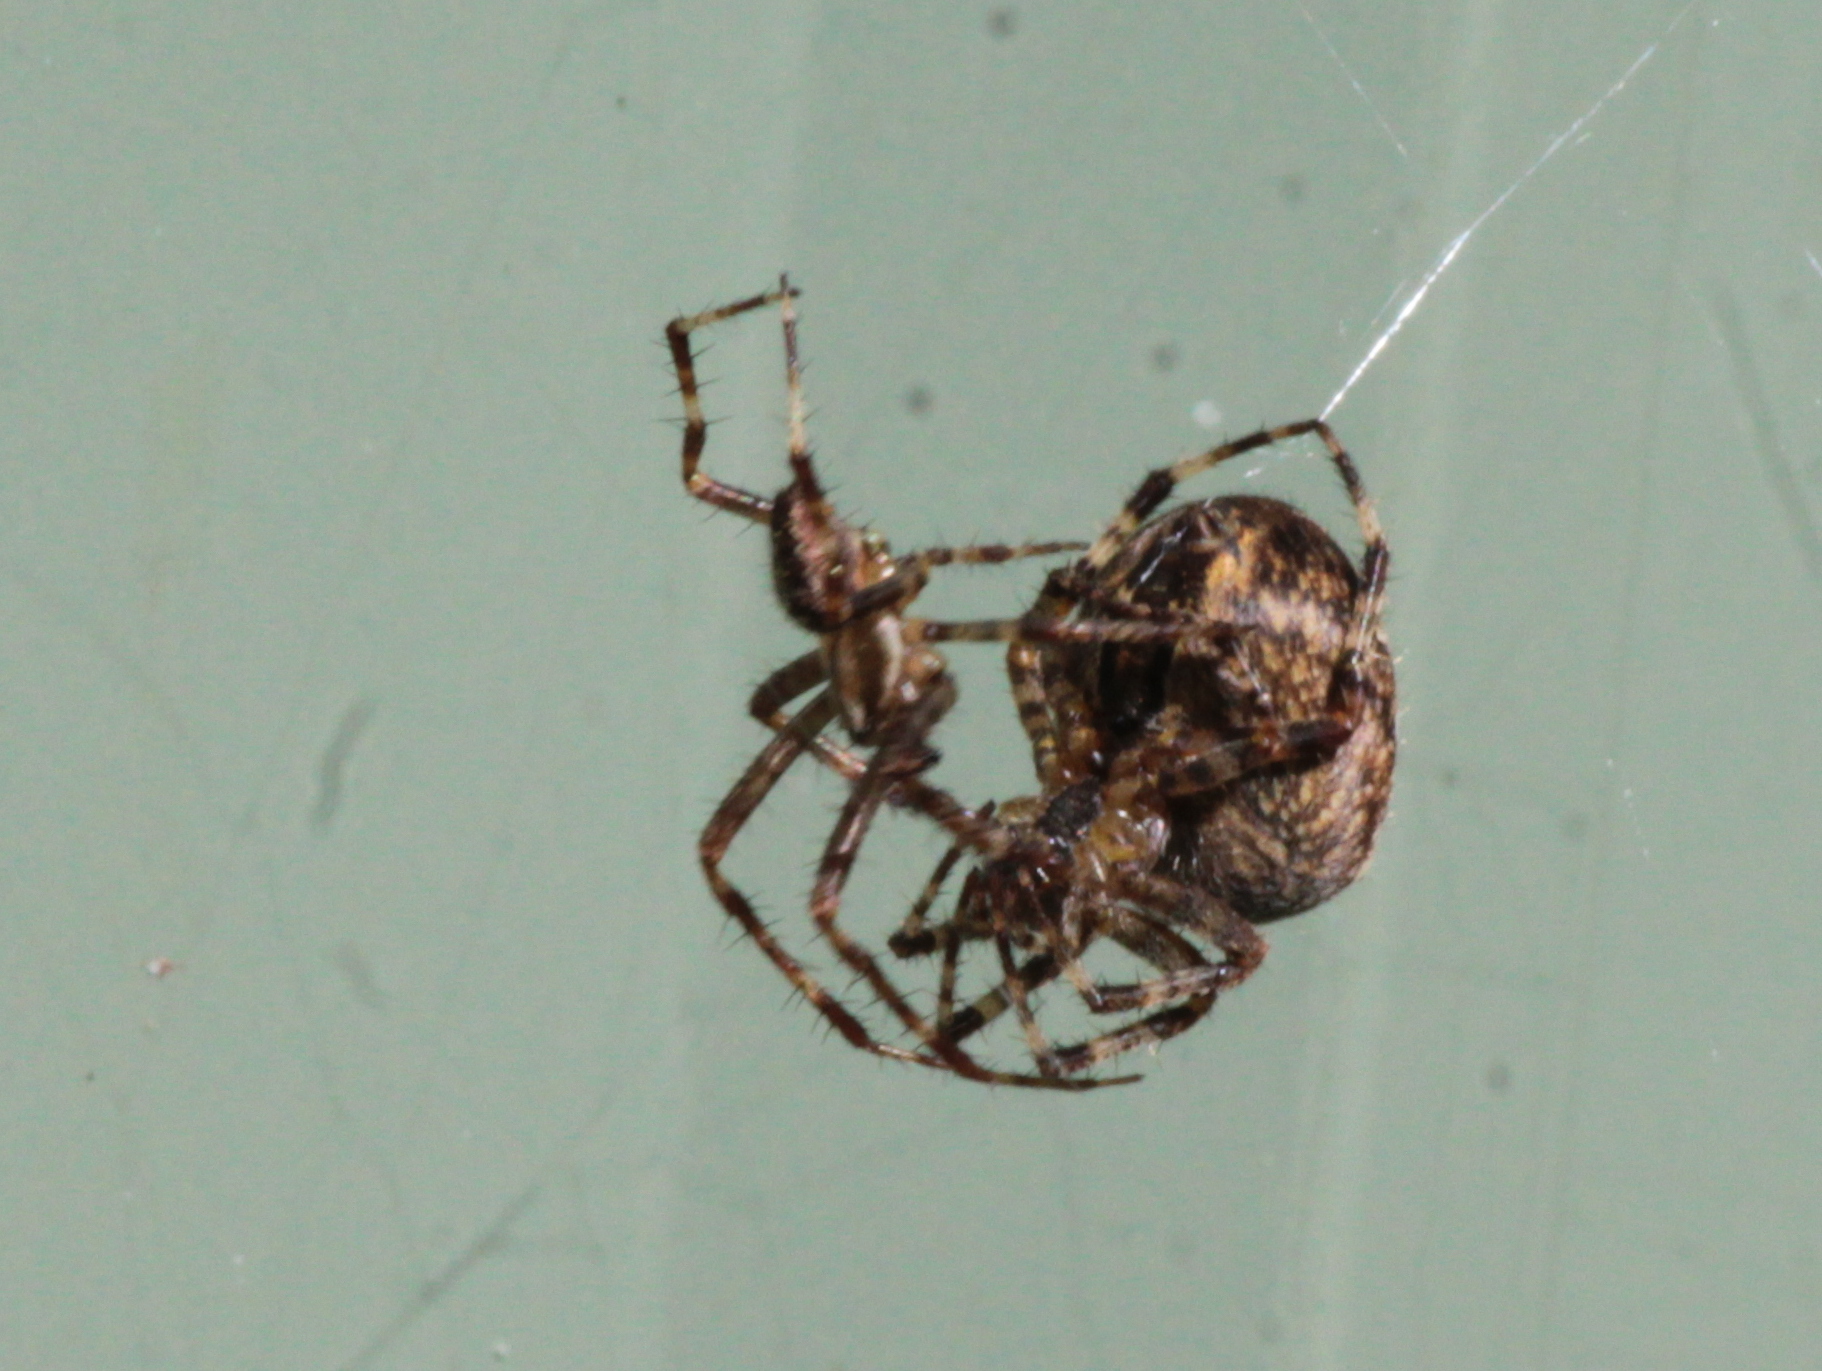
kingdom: Animalia
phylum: Arthropoda
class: Arachnida
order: Araneae
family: Araneidae
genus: Araneus
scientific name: Araneus diadematus
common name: Cross orbweaver
